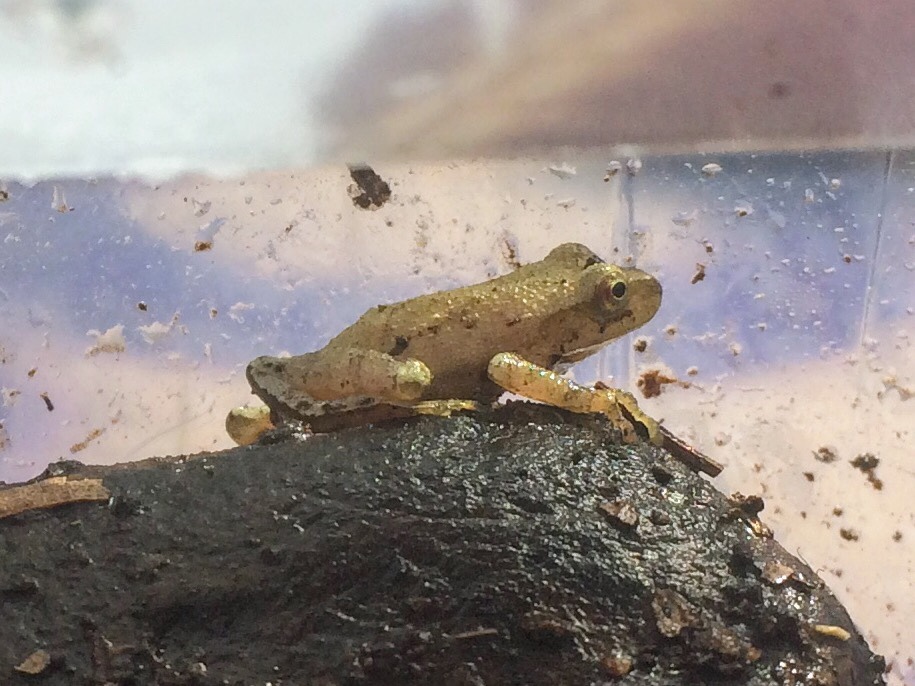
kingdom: Animalia
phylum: Chordata
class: Amphibia
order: Anura
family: Hylidae
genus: Pseudacris
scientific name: Pseudacris crucifer
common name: Spring peeper
